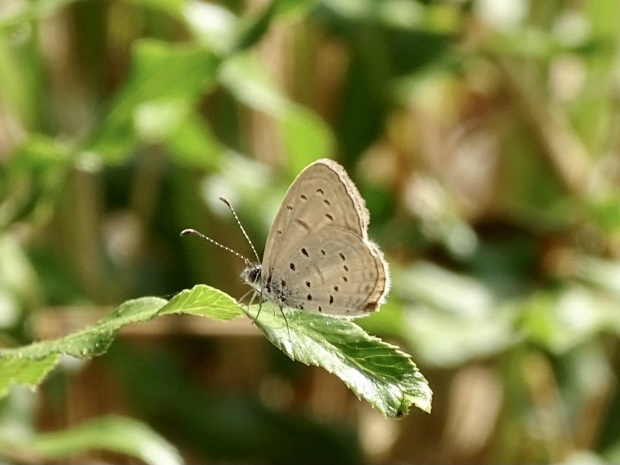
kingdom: Animalia
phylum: Arthropoda
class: Insecta
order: Lepidoptera
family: Lycaenidae
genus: Zizula
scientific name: Zizula hylax
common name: Gaika blue
